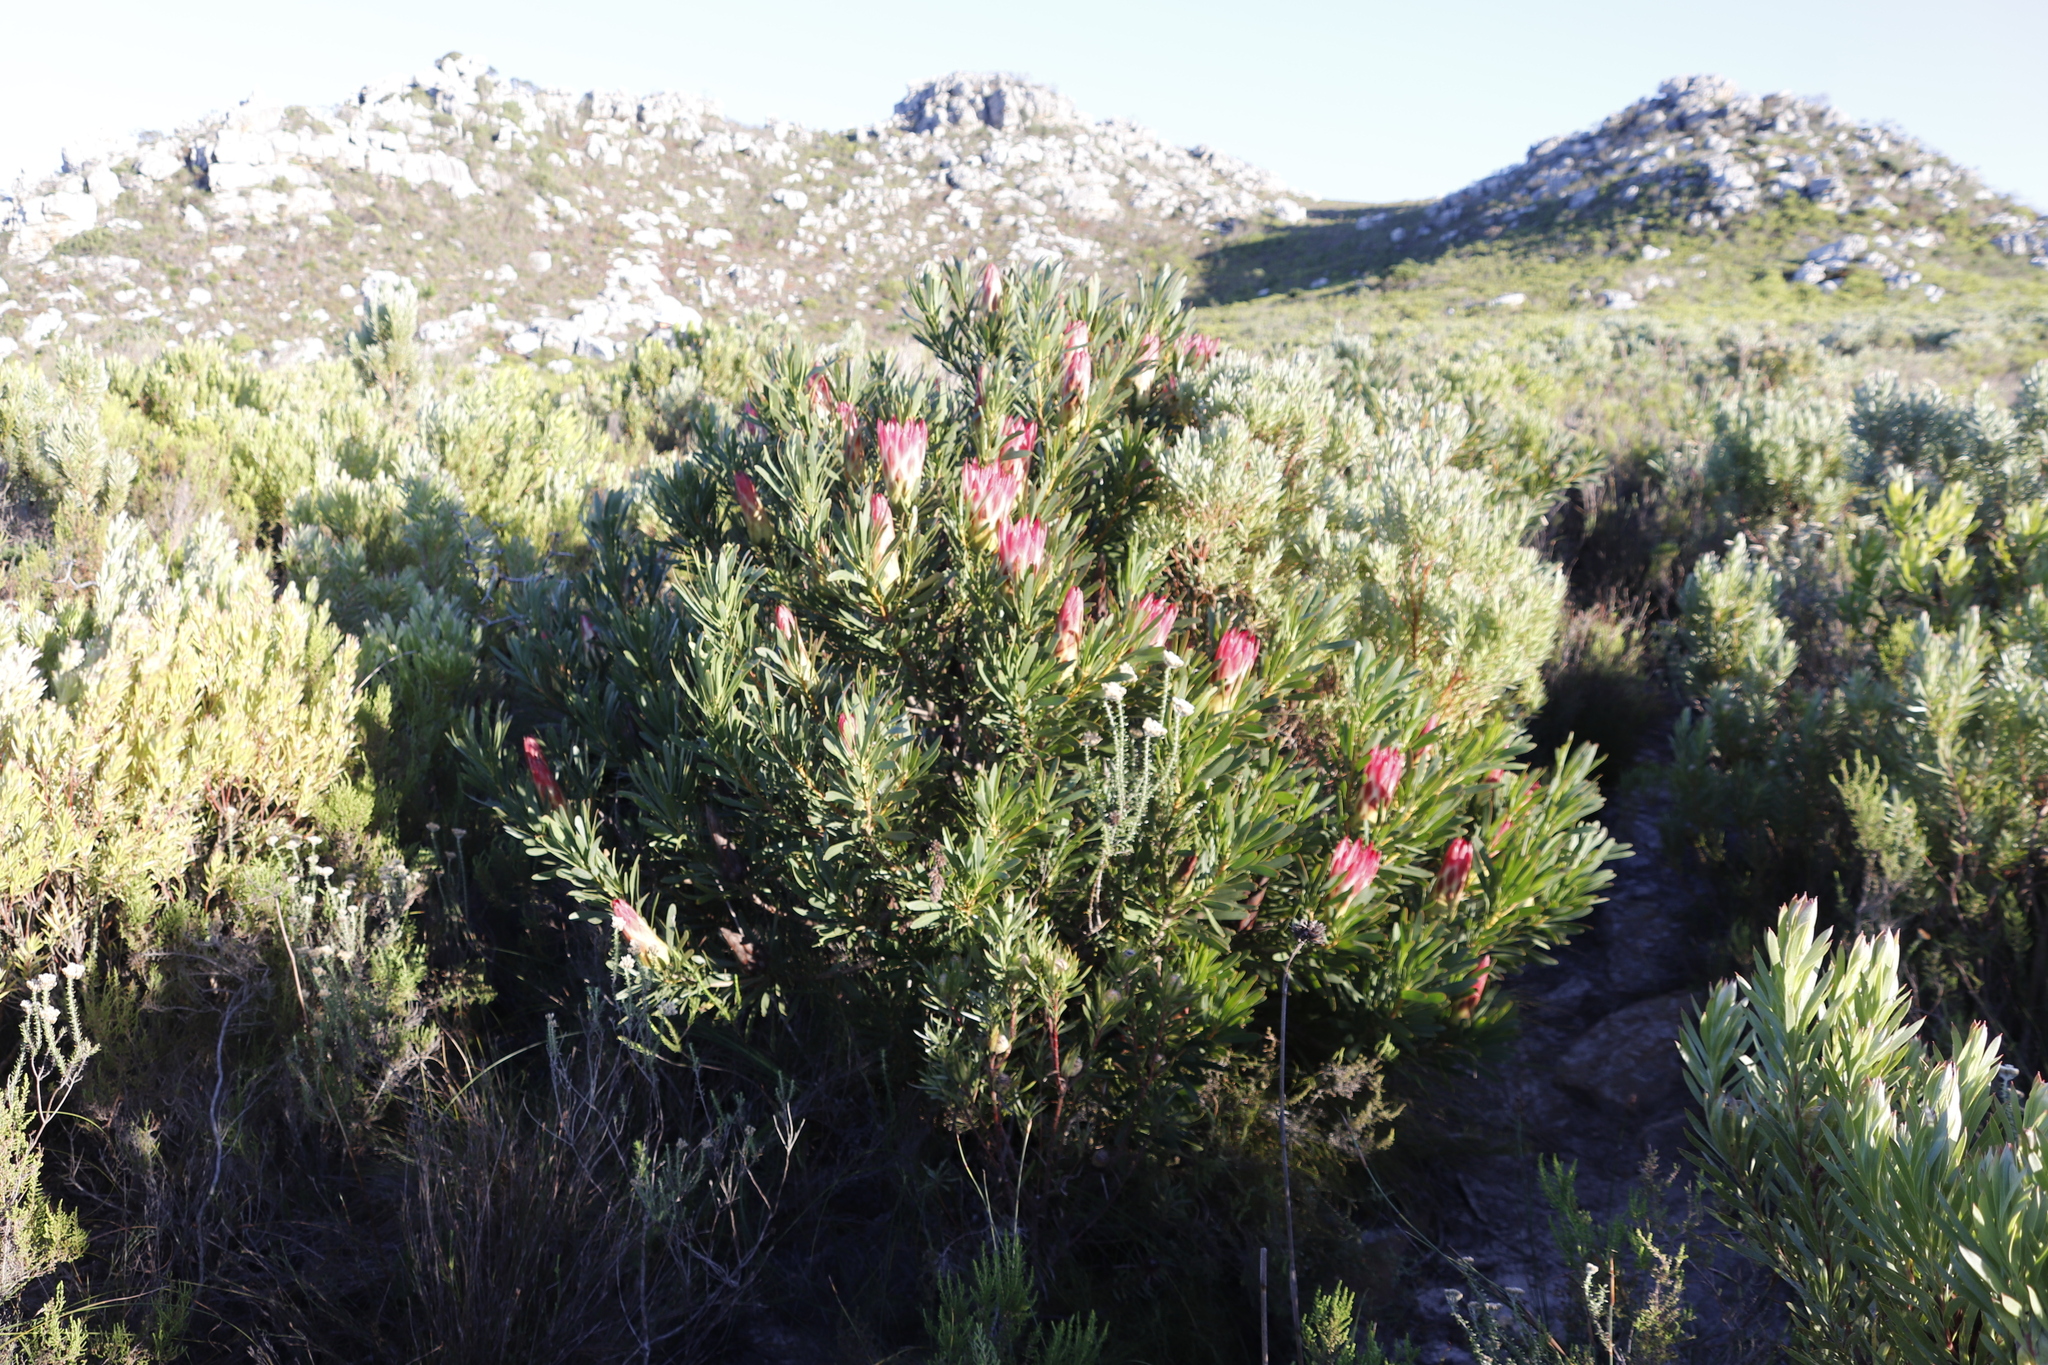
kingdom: Plantae
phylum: Tracheophyta
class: Magnoliopsida
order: Proteales
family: Proteaceae
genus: Protea
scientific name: Protea repens
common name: Sugarbush
